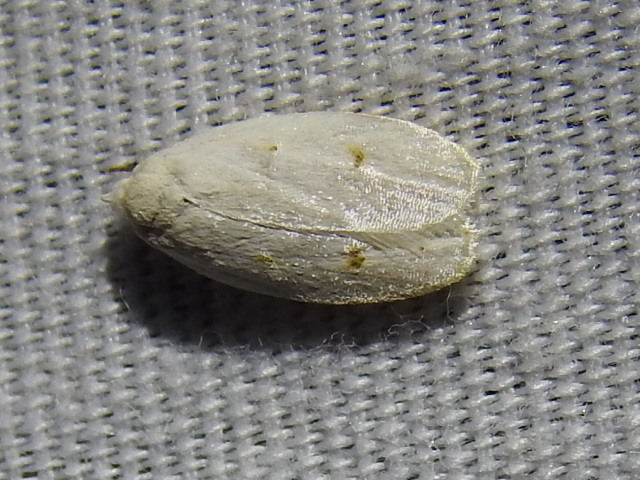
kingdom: Animalia
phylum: Arthropoda
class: Insecta
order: Lepidoptera
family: Peleopodidae
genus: Durrantia
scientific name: Durrantia piperatella
